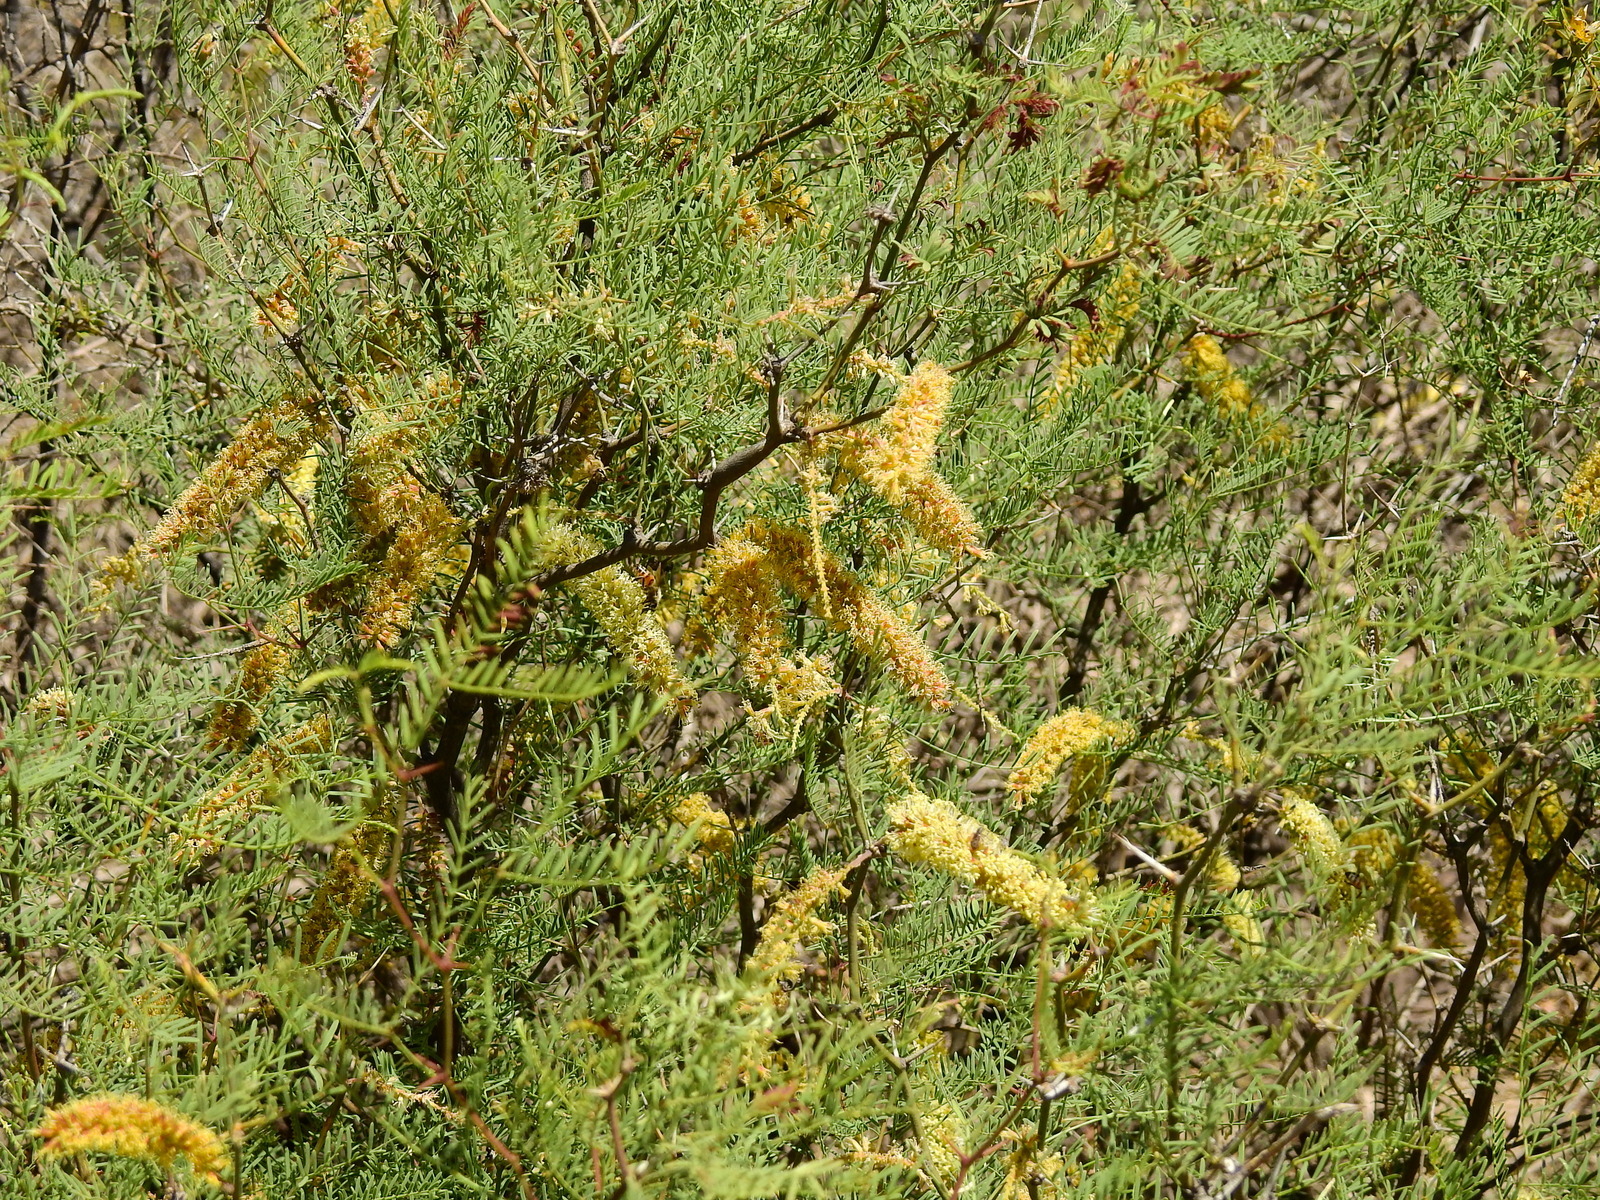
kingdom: Plantae
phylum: Tracheophyta
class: Magnoliopsida
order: Fabales
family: Fabaceae
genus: Prosopis
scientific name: Prosopis flexuosa
